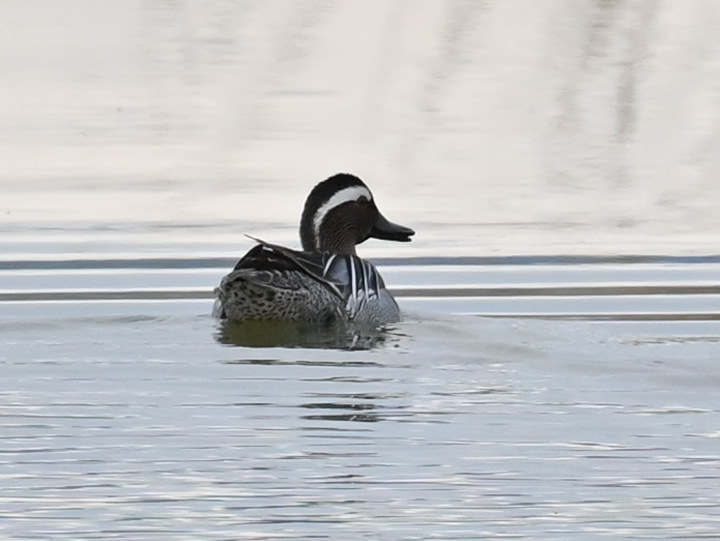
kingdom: Animalia
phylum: Chordata
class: Aves
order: Anseriformes
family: Anatidae
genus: Spatula
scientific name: Spatula querquedula
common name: Garganey
